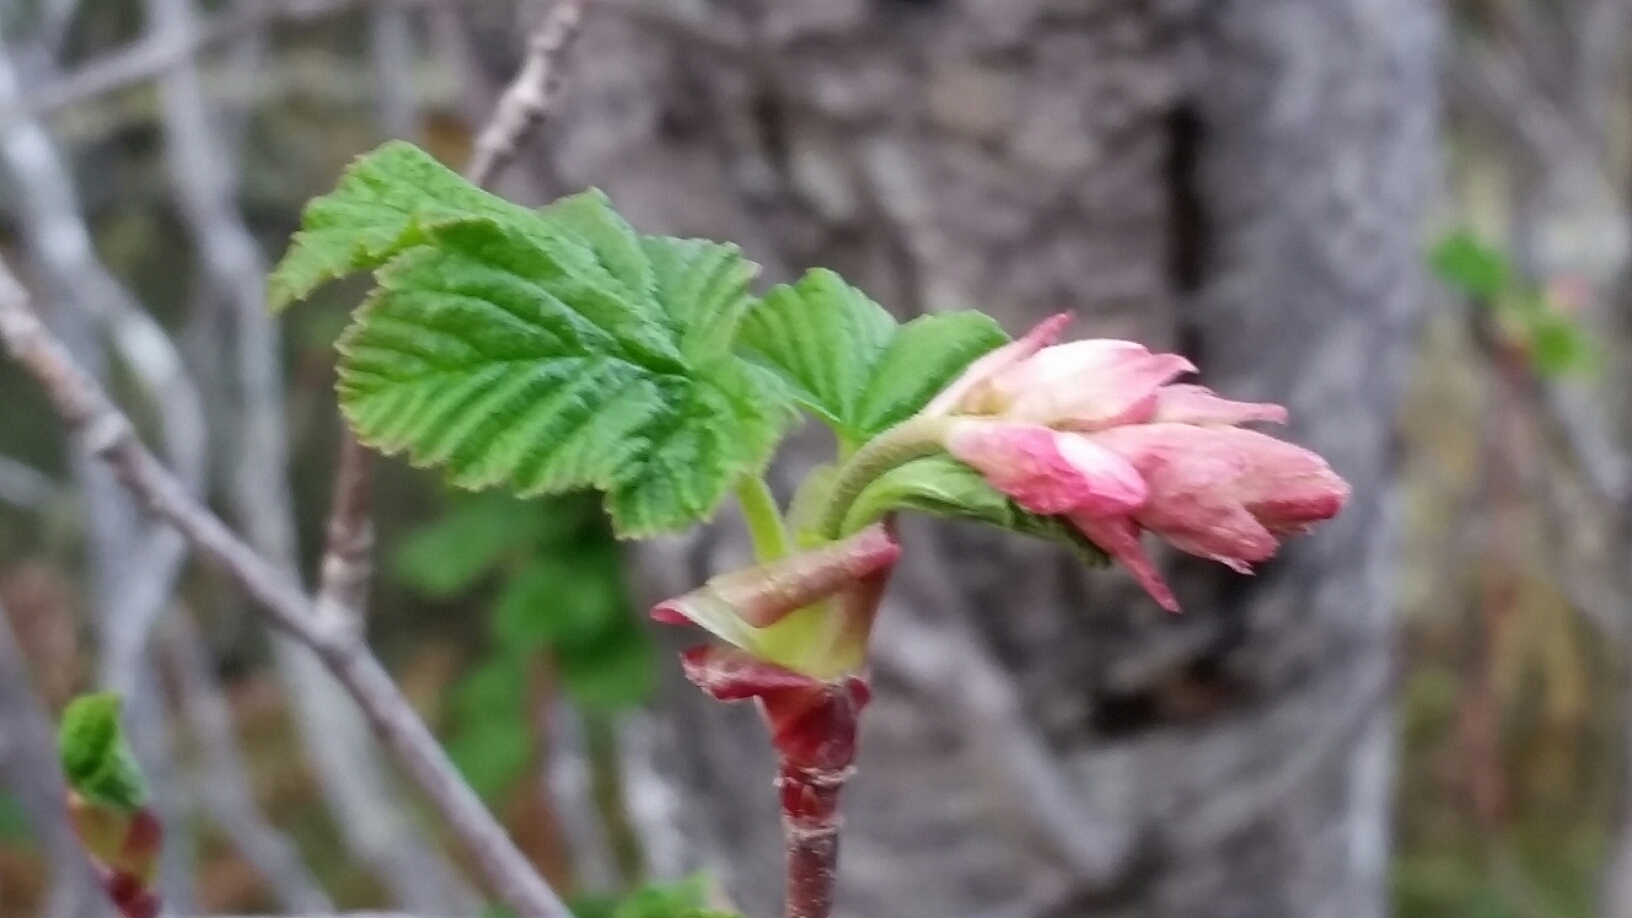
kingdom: Plantae
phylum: Tracheophyta
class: Magnoliopsida
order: Saxifragales
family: Grossulariaceae
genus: Ribes
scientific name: Ribes sanguineum
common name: Flowering currant
